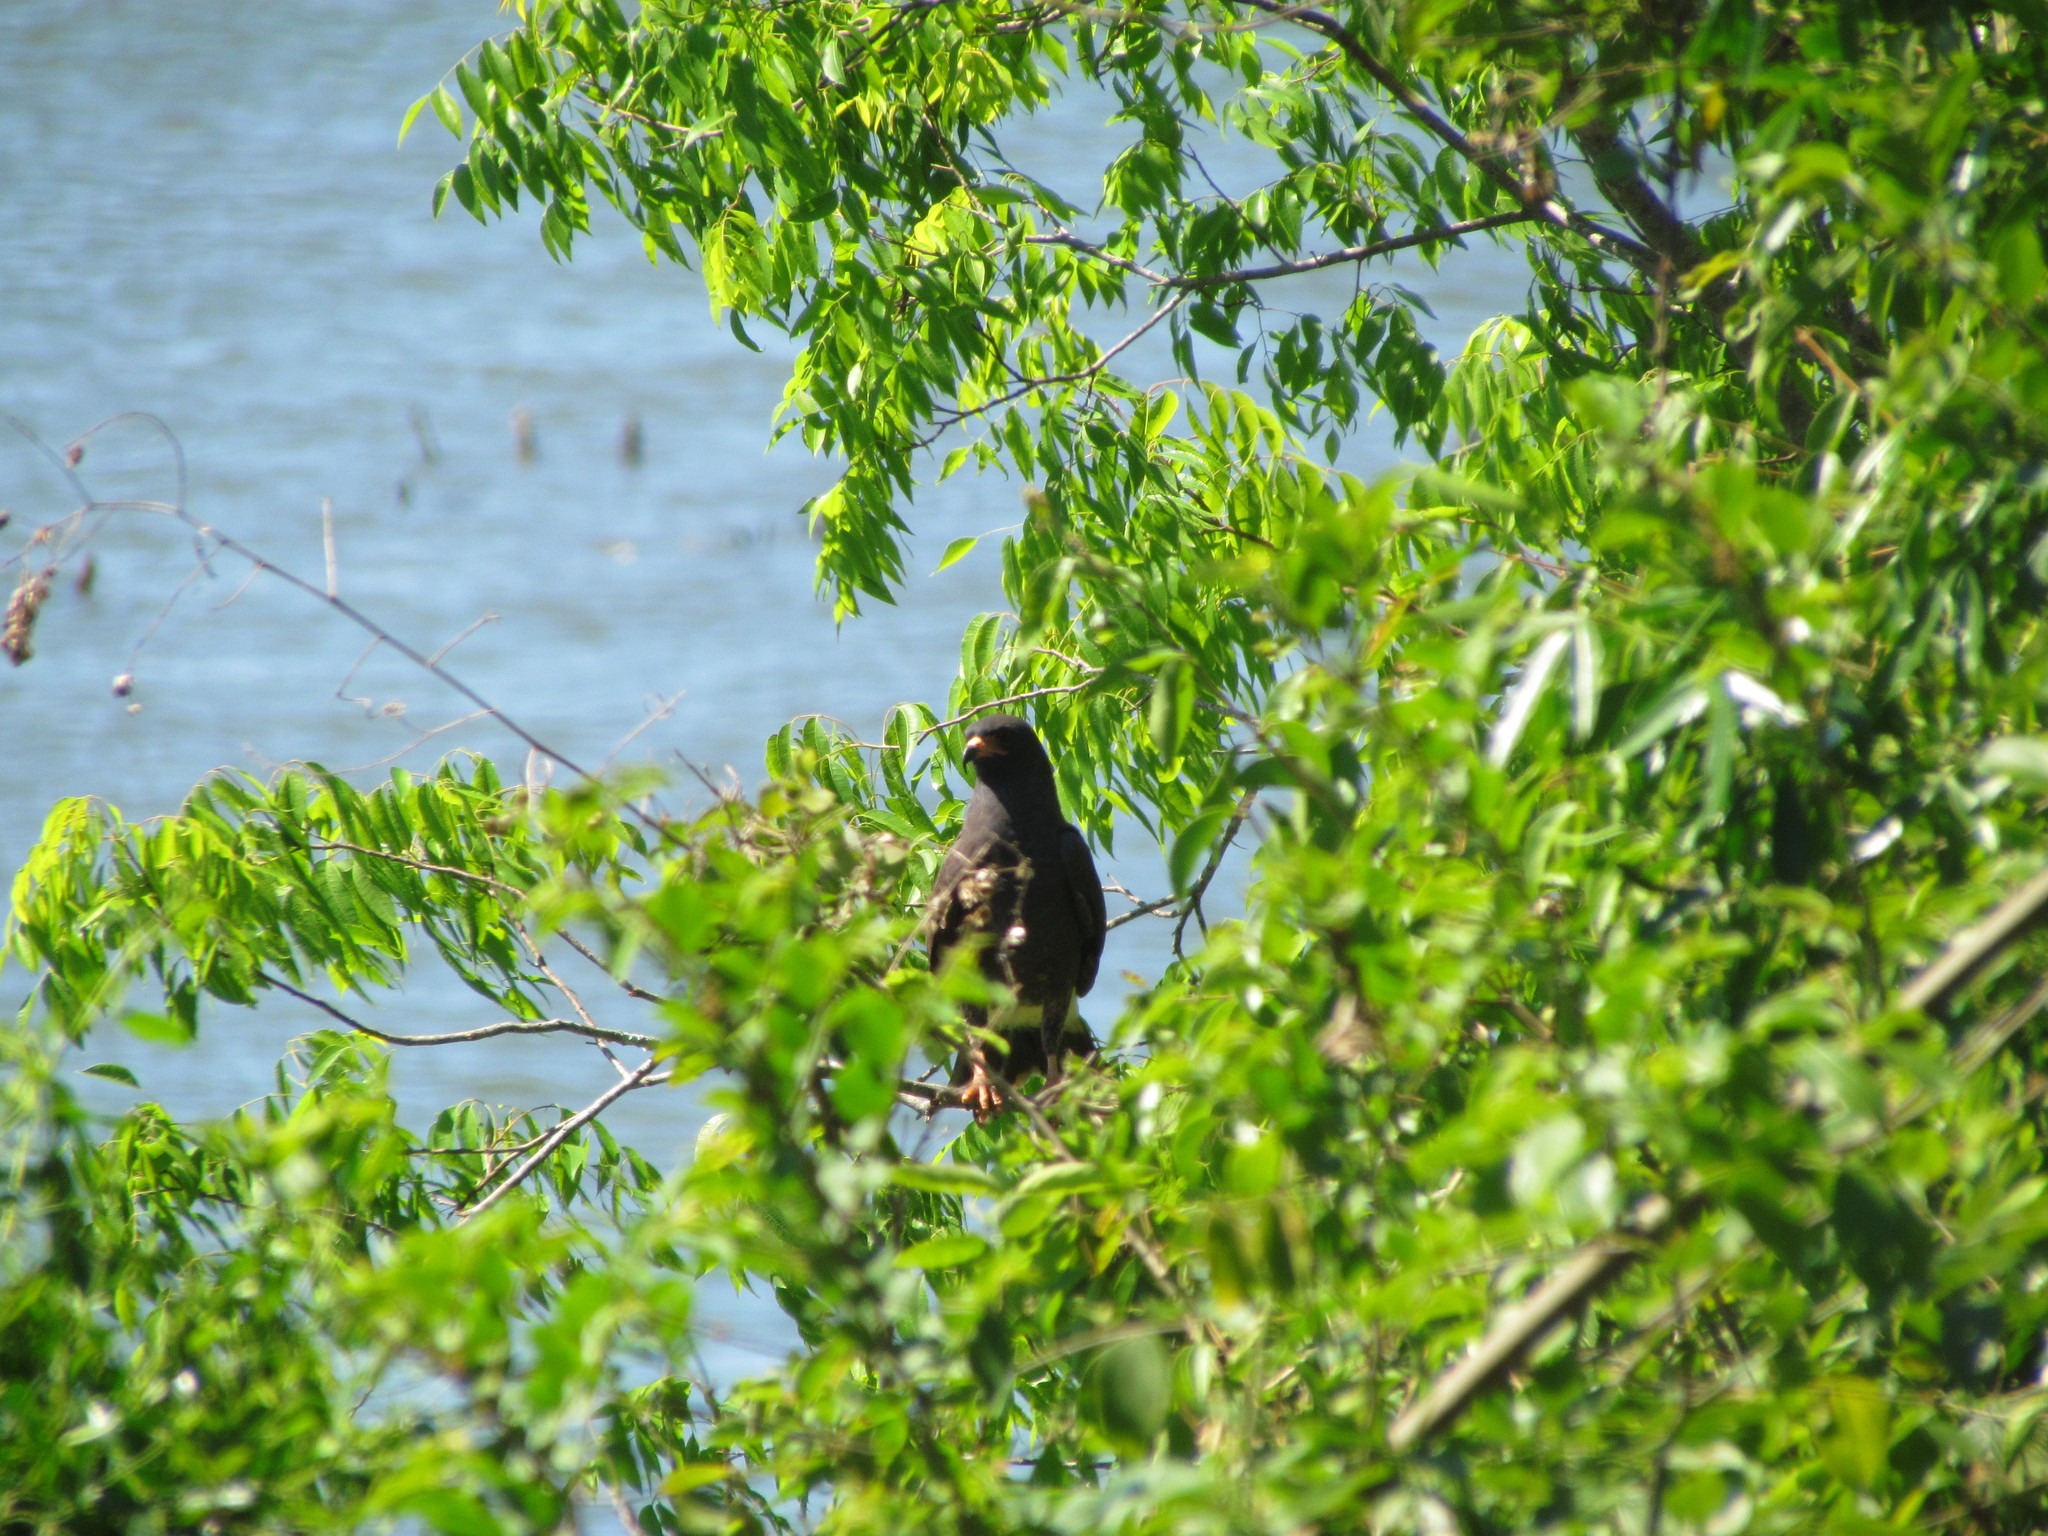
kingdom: Animalia
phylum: Chordata
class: Aves
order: Accipitriformes
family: Accipitridae
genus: Rostrhamus
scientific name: Rostrhamus sociabilis
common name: Snail kite
